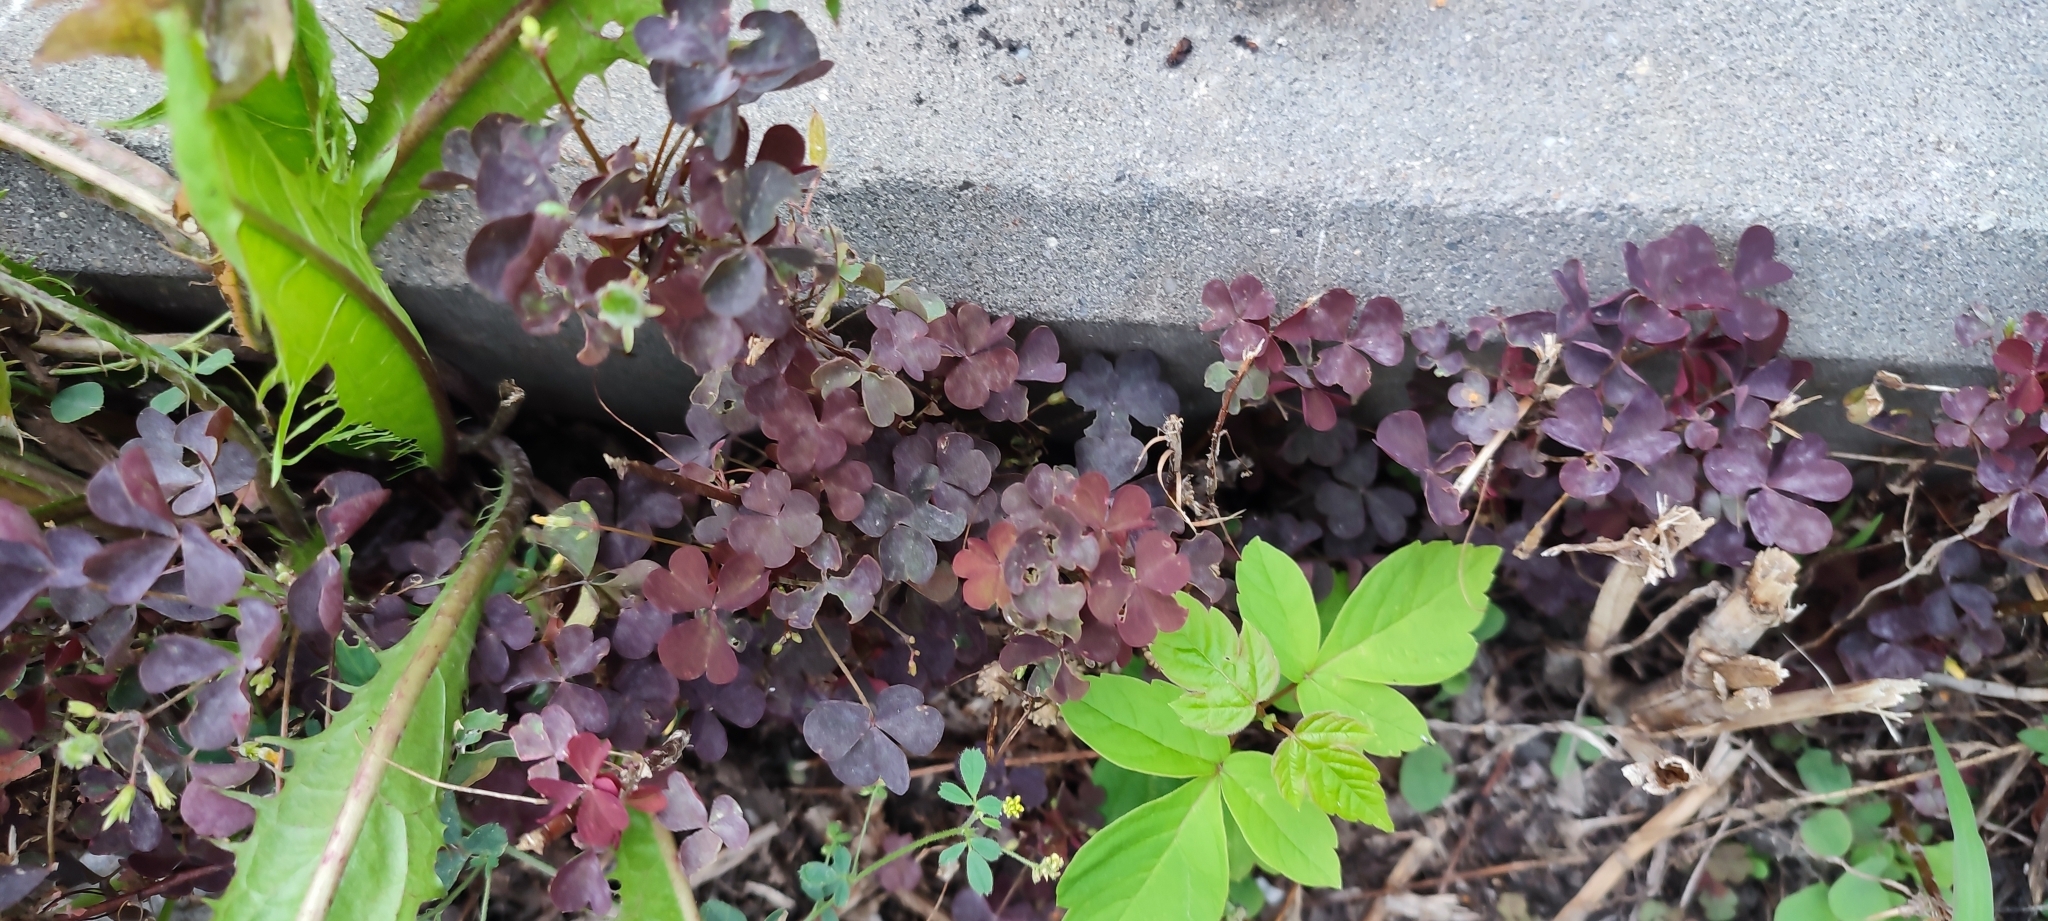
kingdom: Plantae
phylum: Tracheophyta
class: Magnoliopsida
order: Oxalidales
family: Oxalidaceae
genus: Oxalis
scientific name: Oxalis stricta
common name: Upright yellow-sorrel
